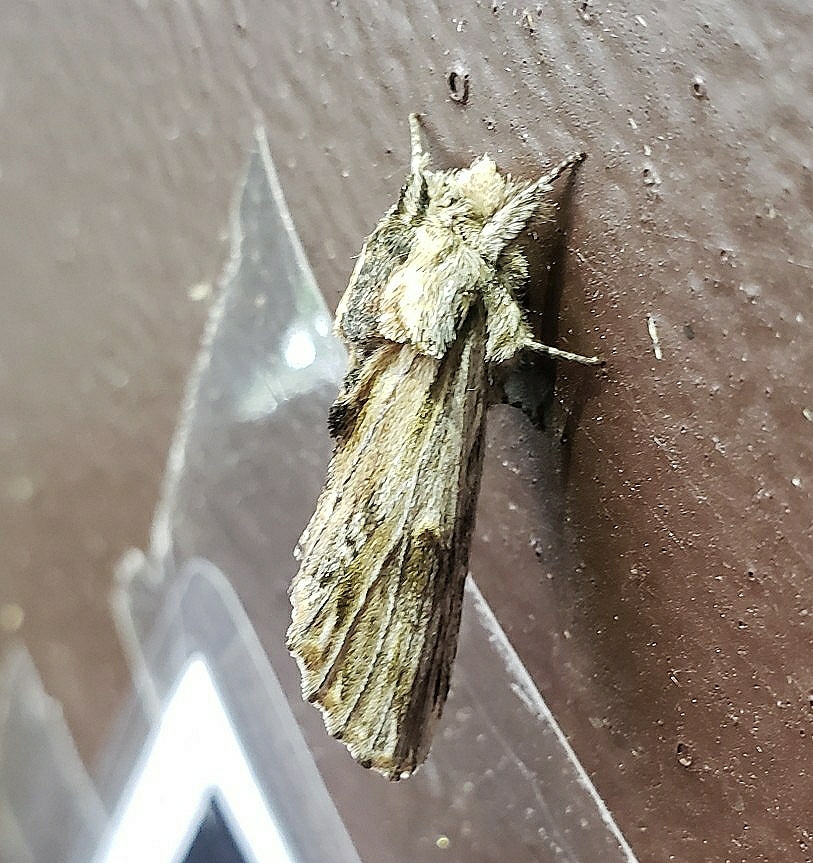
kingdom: Animalia
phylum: Arthropoda
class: Insecta
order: Lepidoptera
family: Notodontidae
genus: Oligocentria
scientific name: Oligocentria Ianassa lignicolor
